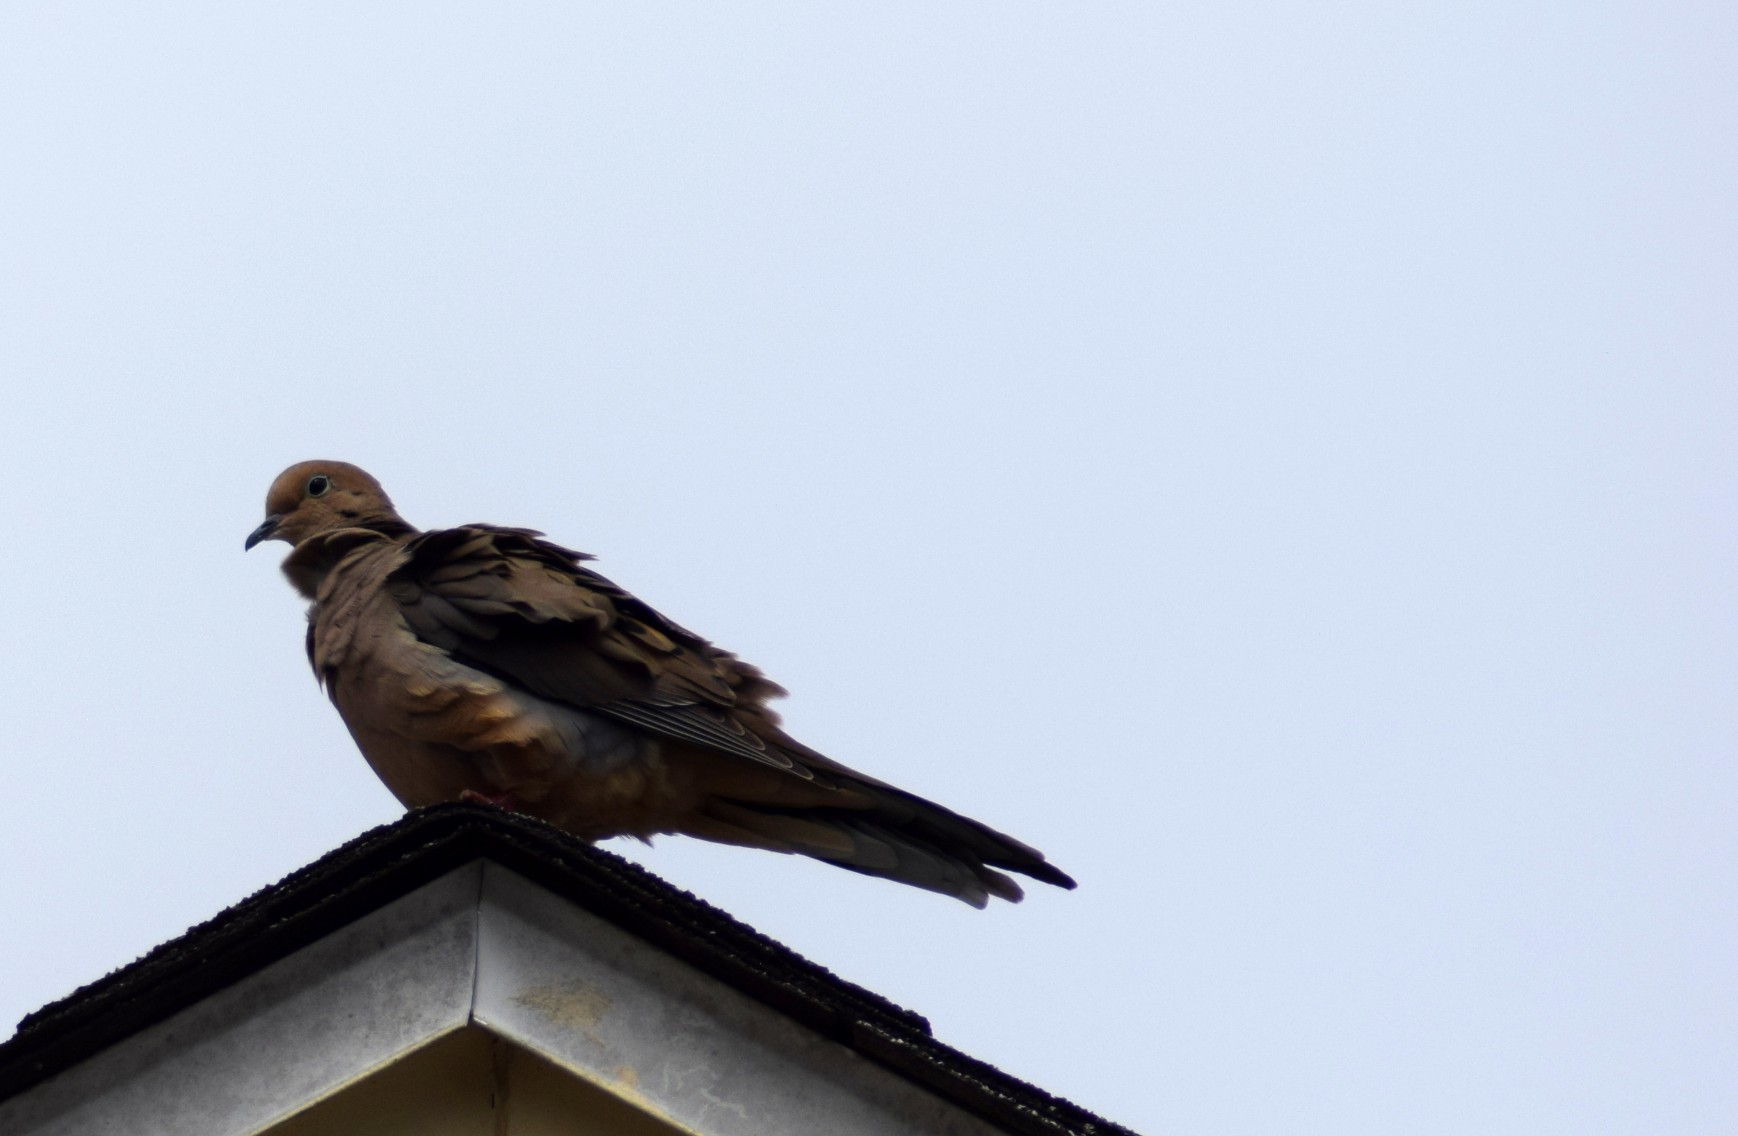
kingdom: Animalia
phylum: Chordata
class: Aves
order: Columbiformes
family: Columbidae
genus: Zenaida
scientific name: Zenaida macroura
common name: Mourning dove
